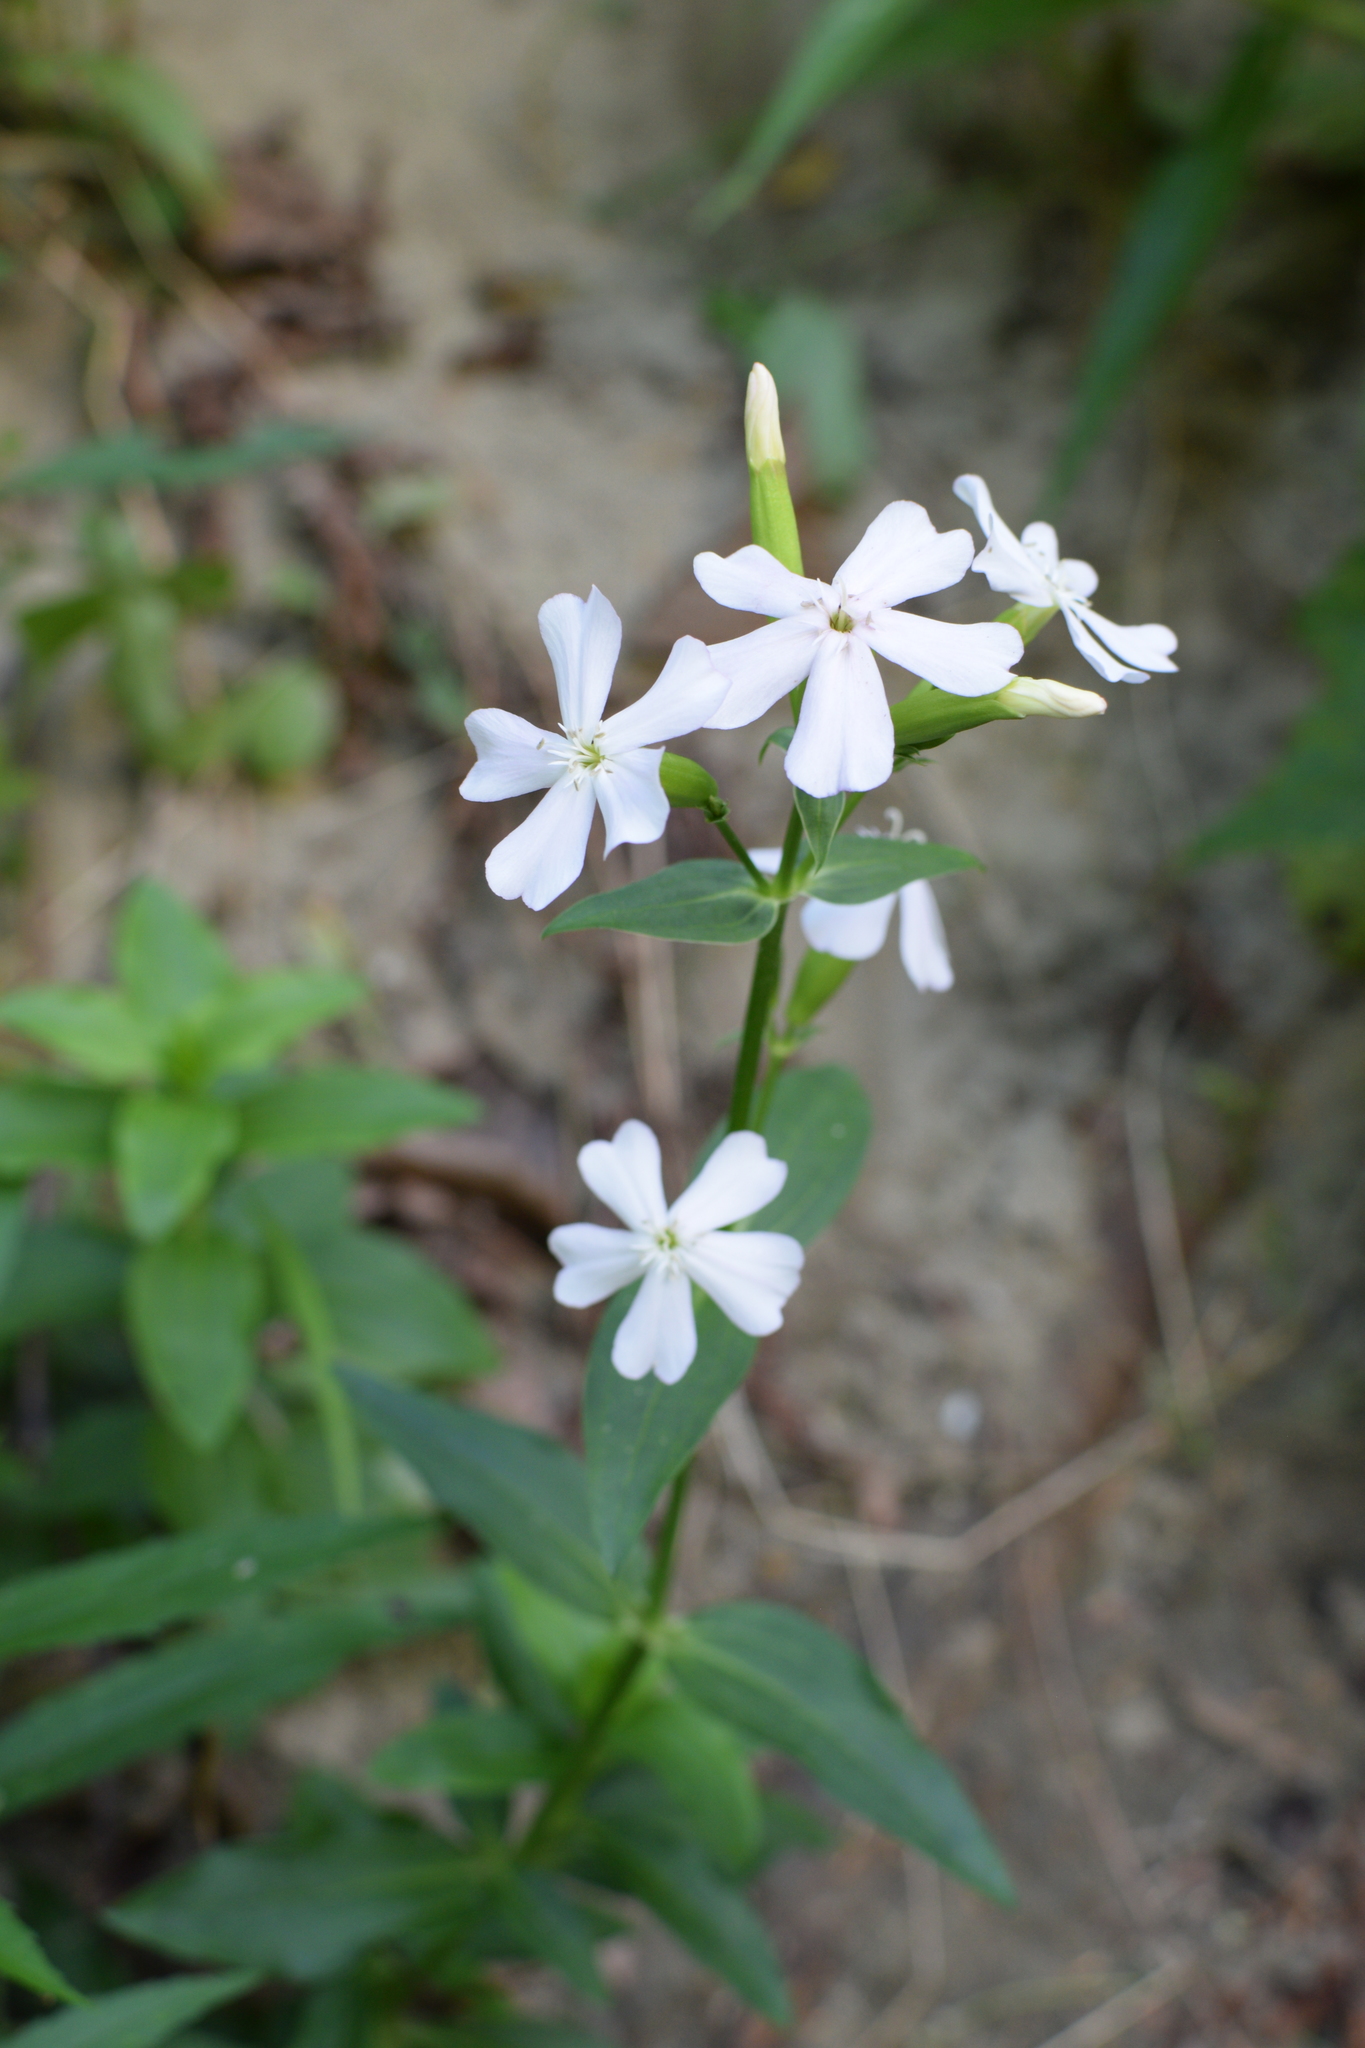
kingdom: Plantae
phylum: Tracheophyta
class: Magnoliopsida
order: Caryophyllales
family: Caryophyllaceae
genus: Saponaria
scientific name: Saponaria officinalis
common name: Soapwort
